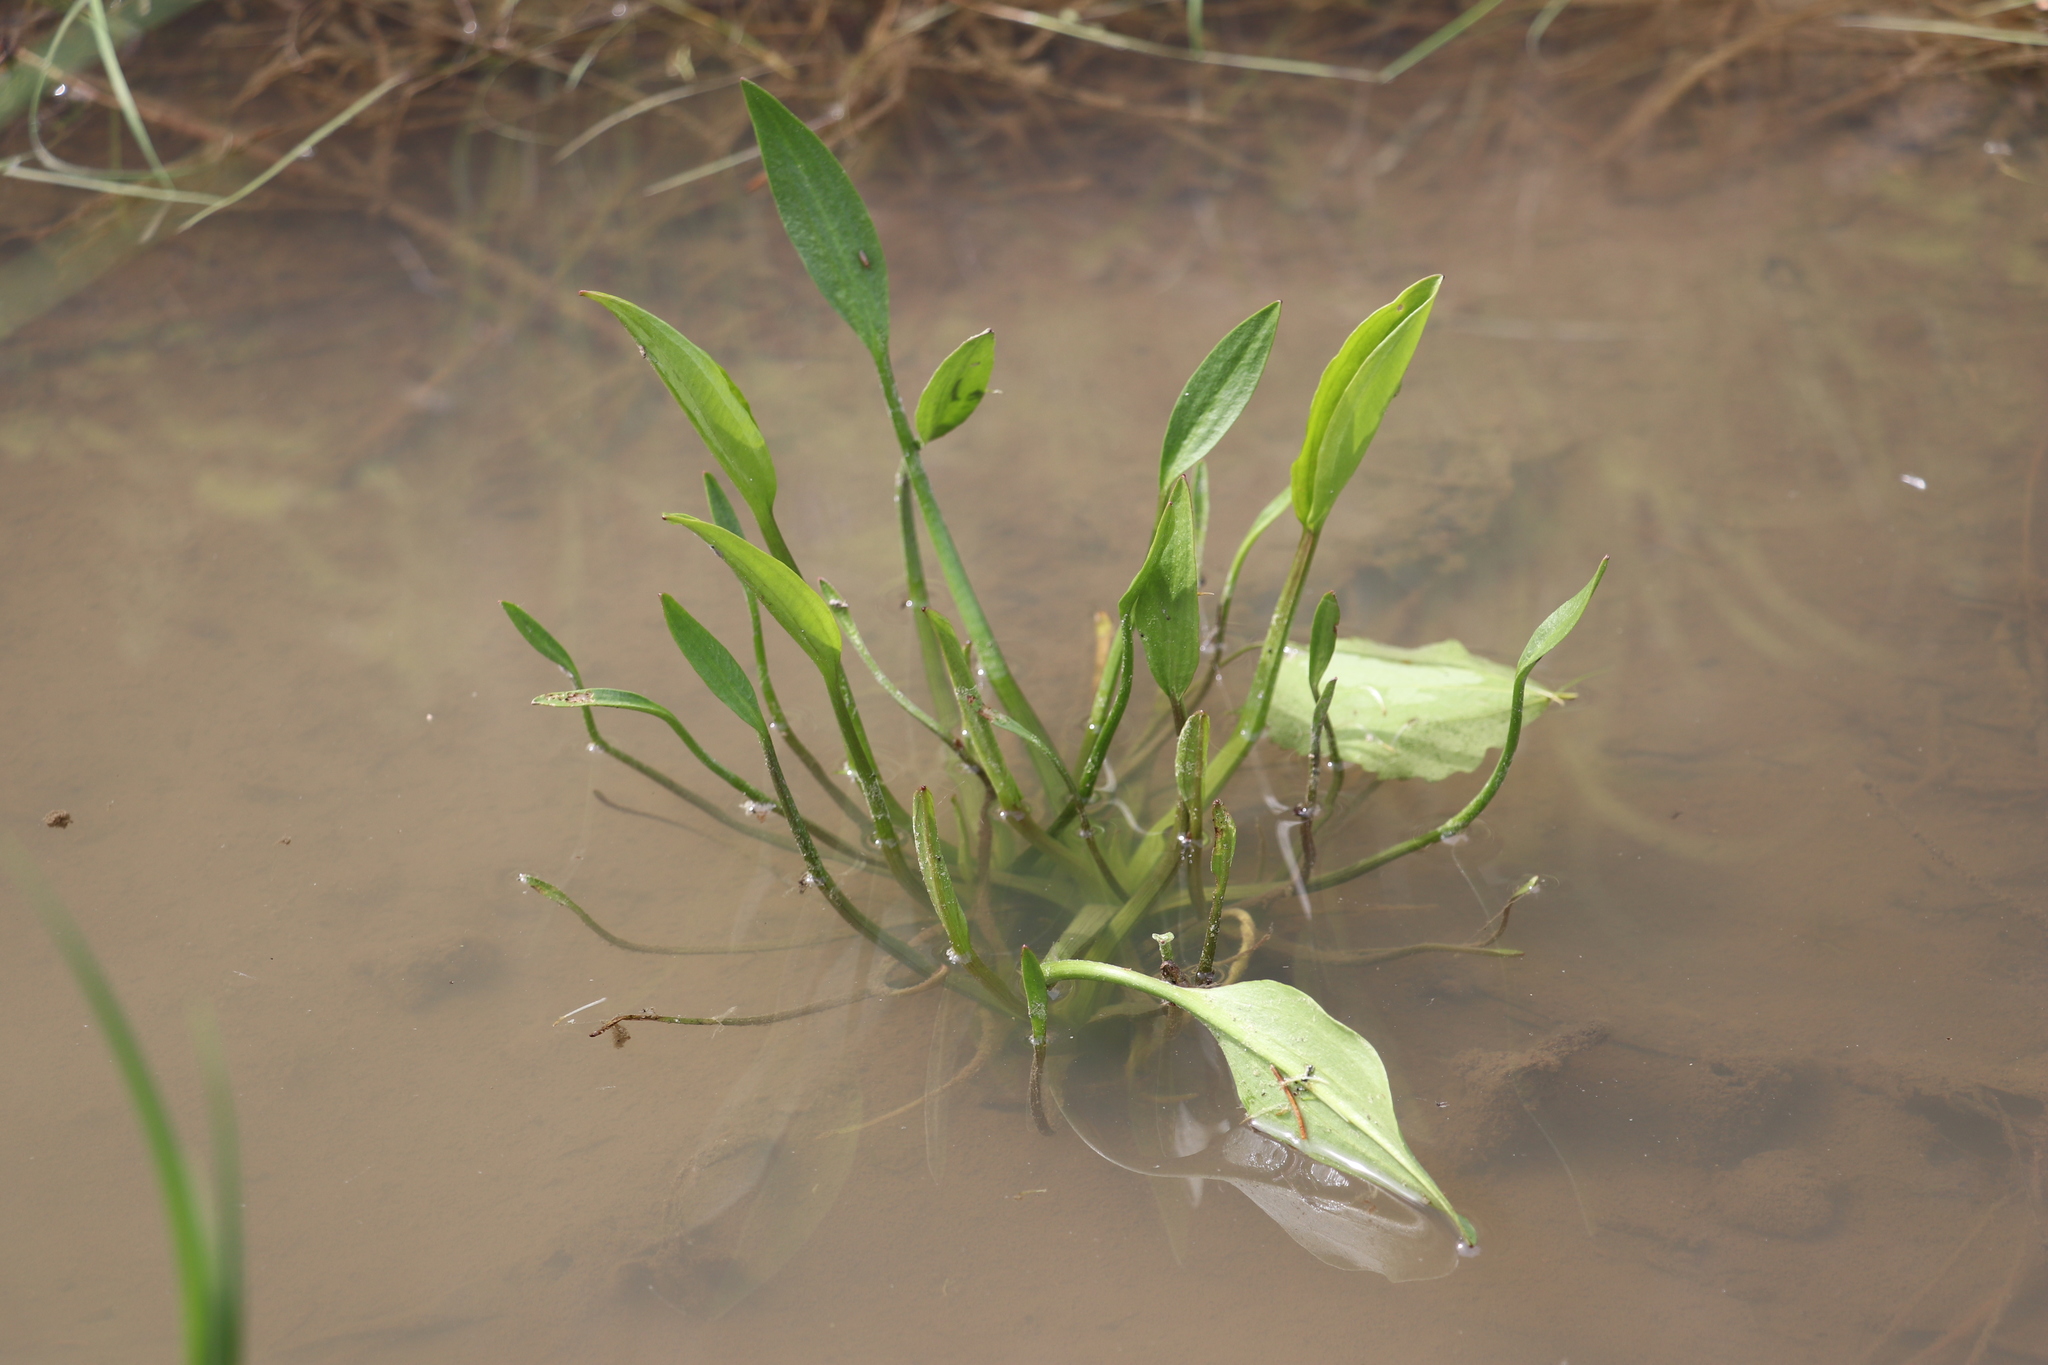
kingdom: Plantae
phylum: Tracheophyta
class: Liliopsida
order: Alismatales
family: Alismataceae
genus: Alisma
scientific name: Alisma plantago-aquatica
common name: Water-plantain
